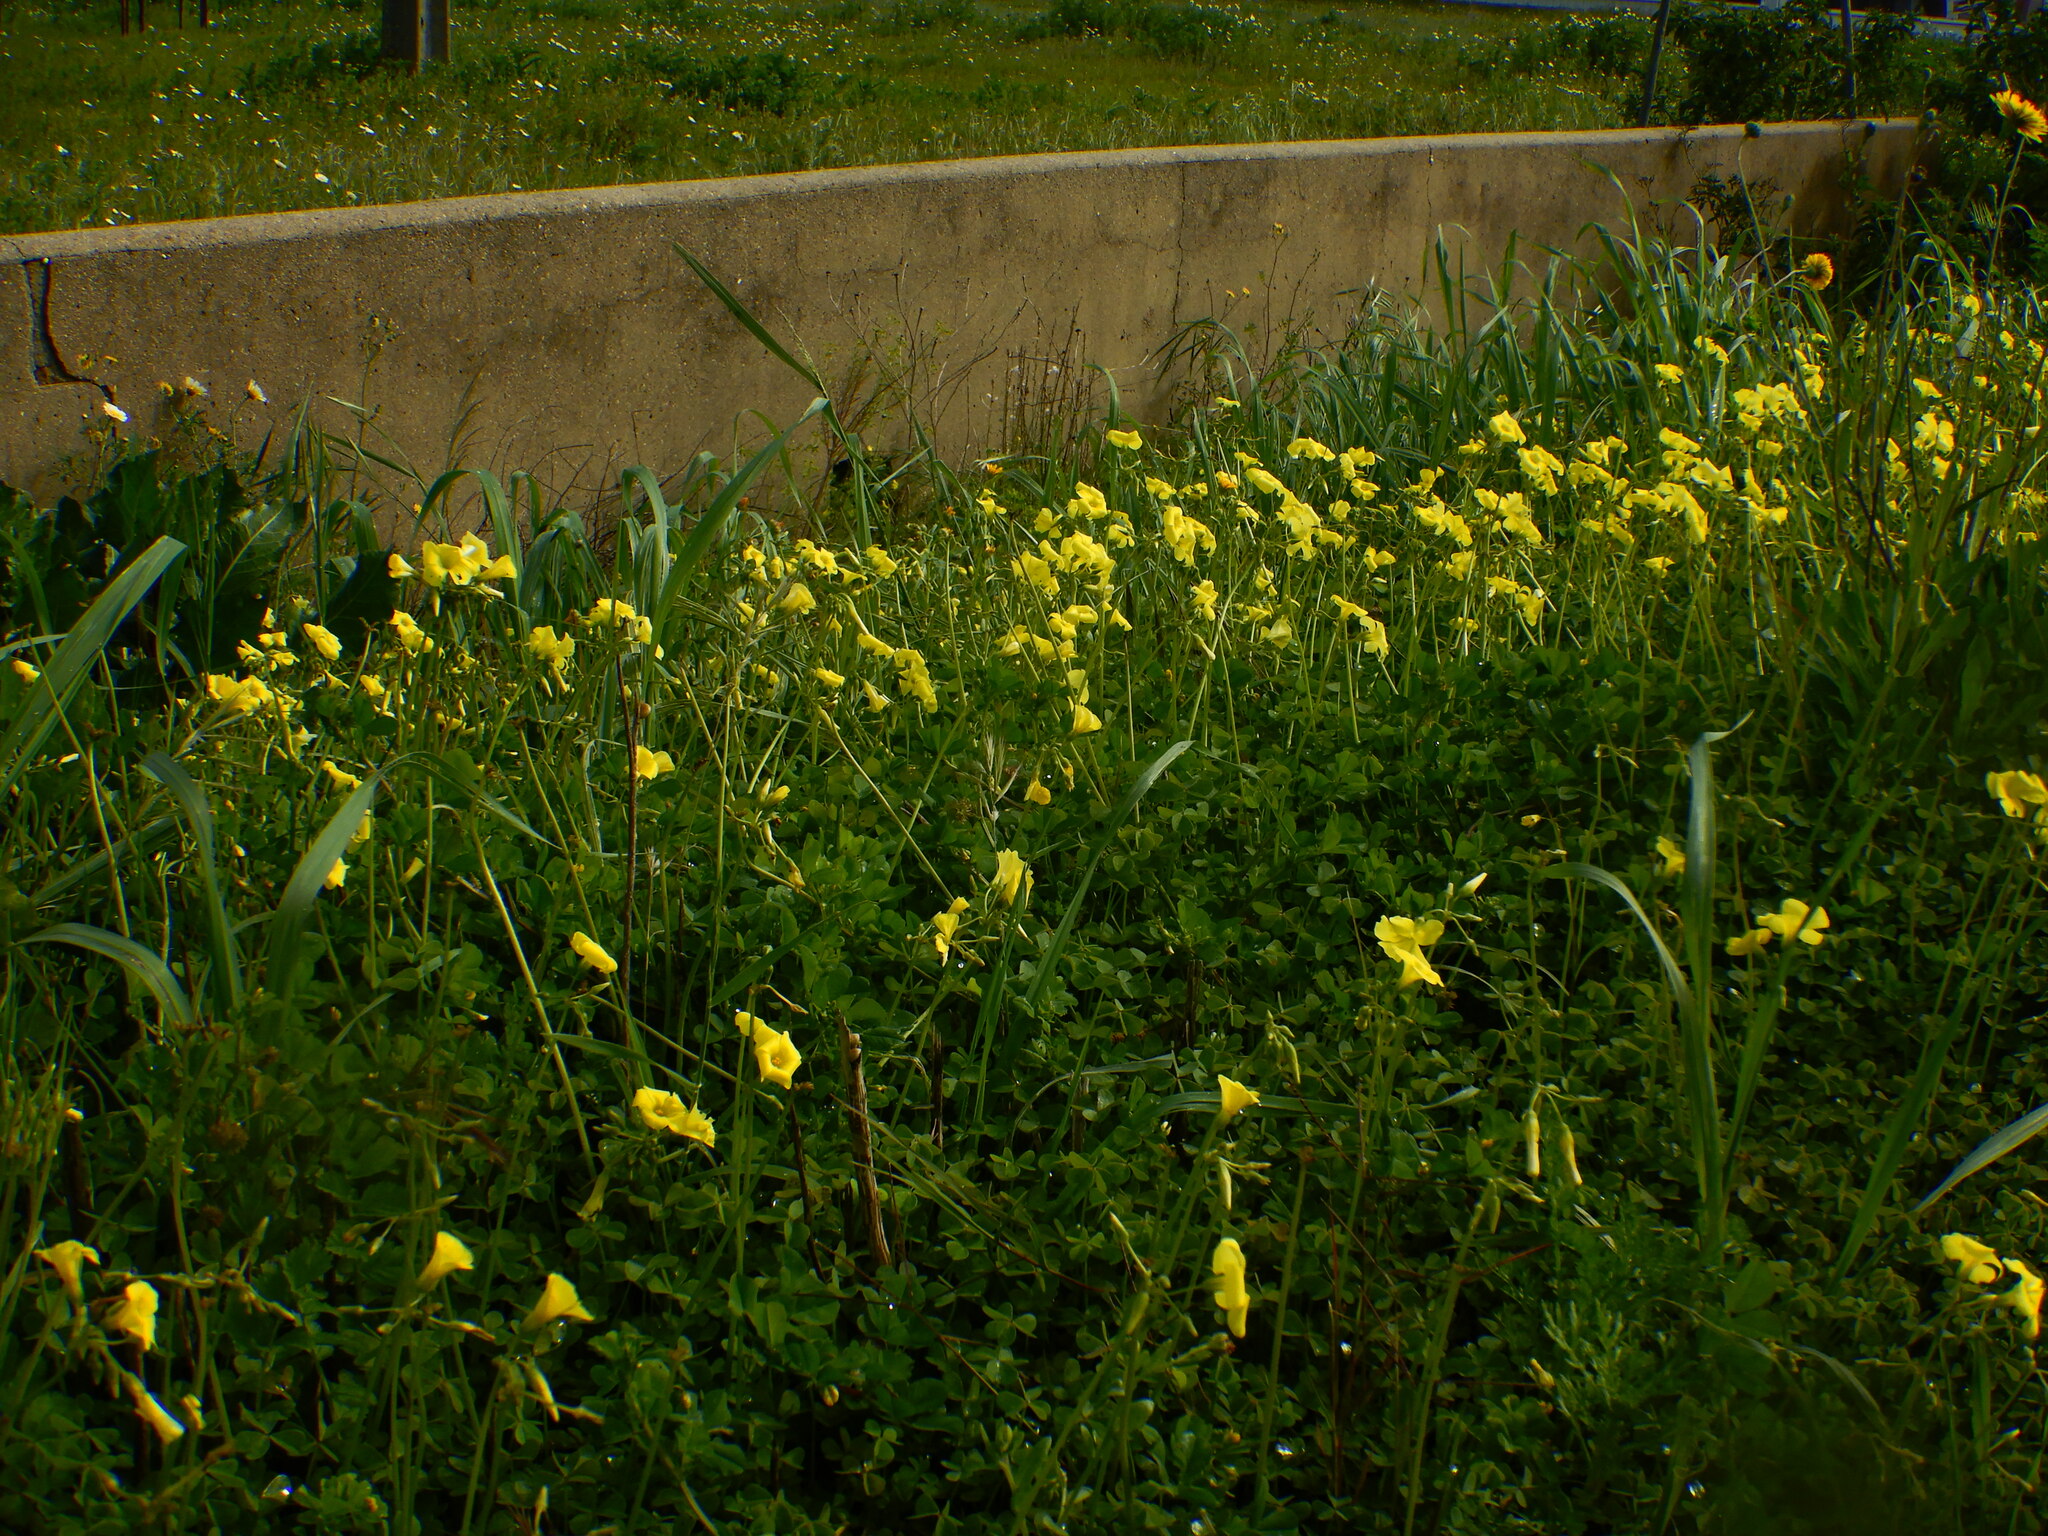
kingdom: Plantae
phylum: Tracheophyta
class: Magnoliopsida
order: Oxalidales
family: Oxalidaceae
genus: Oxalis
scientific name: Oxalis pes-caprae
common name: Bermuda-buttercup
